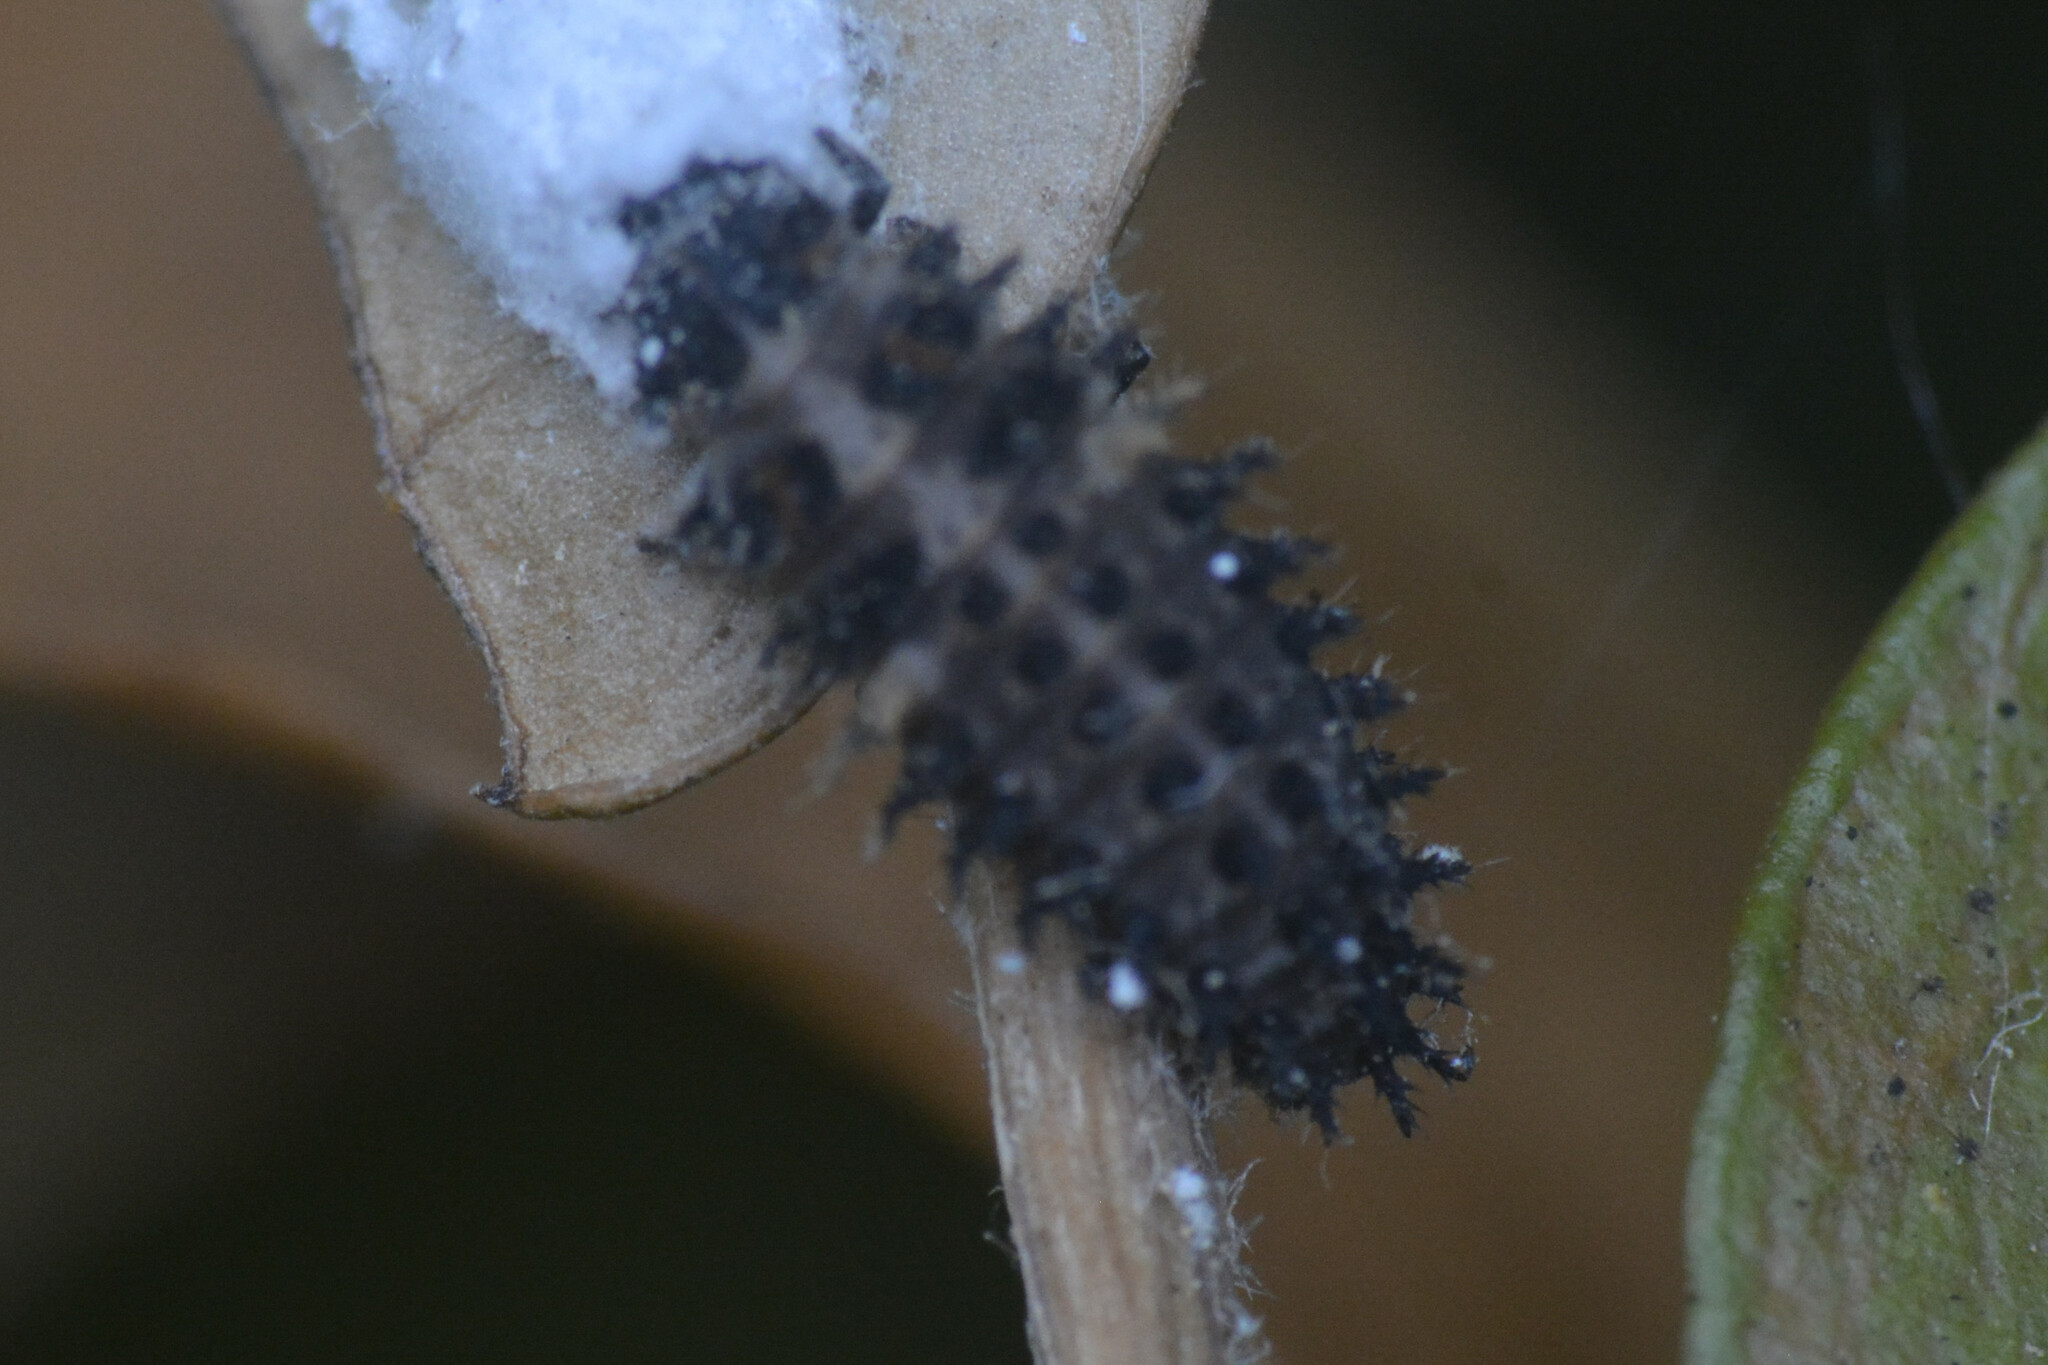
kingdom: Animalia
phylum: Arthropoda
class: Insecta
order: Coleoptera
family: Coccinellidae
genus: Brumus
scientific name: Brumus quadripustulatus
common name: Ladybird beetle
